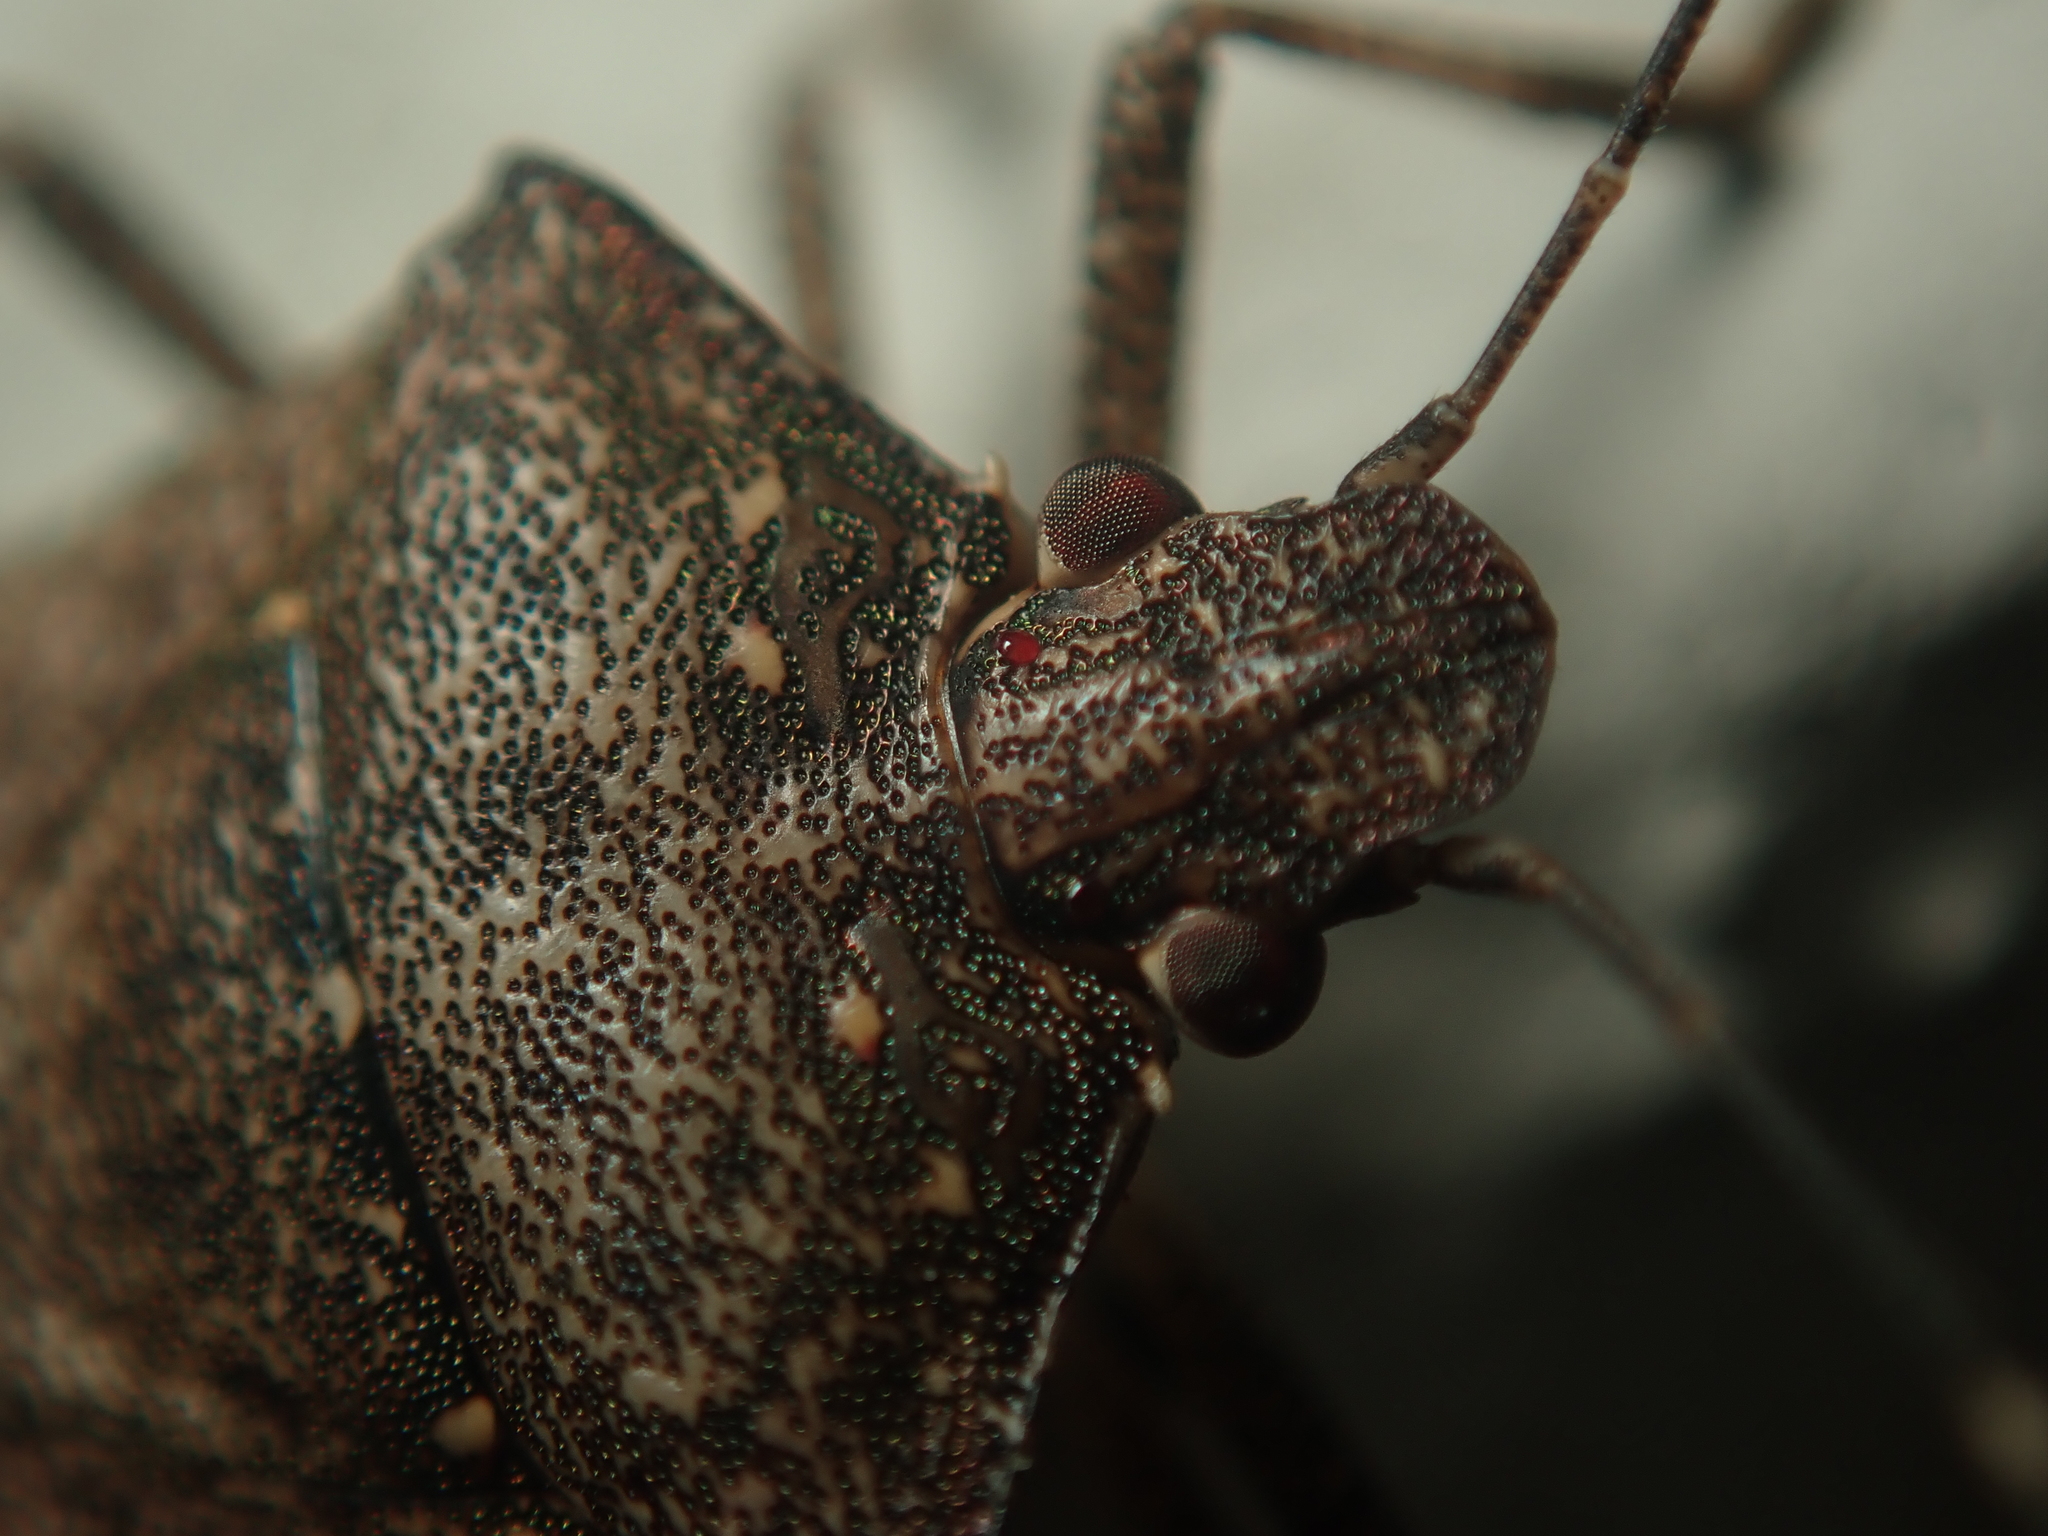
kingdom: Animalia
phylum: Arthropoda
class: Insecta
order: Hemiptera
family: Pentatomidae
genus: Halyomorpha
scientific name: Halyomorpha halys
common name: Brown marmorated stink bug
